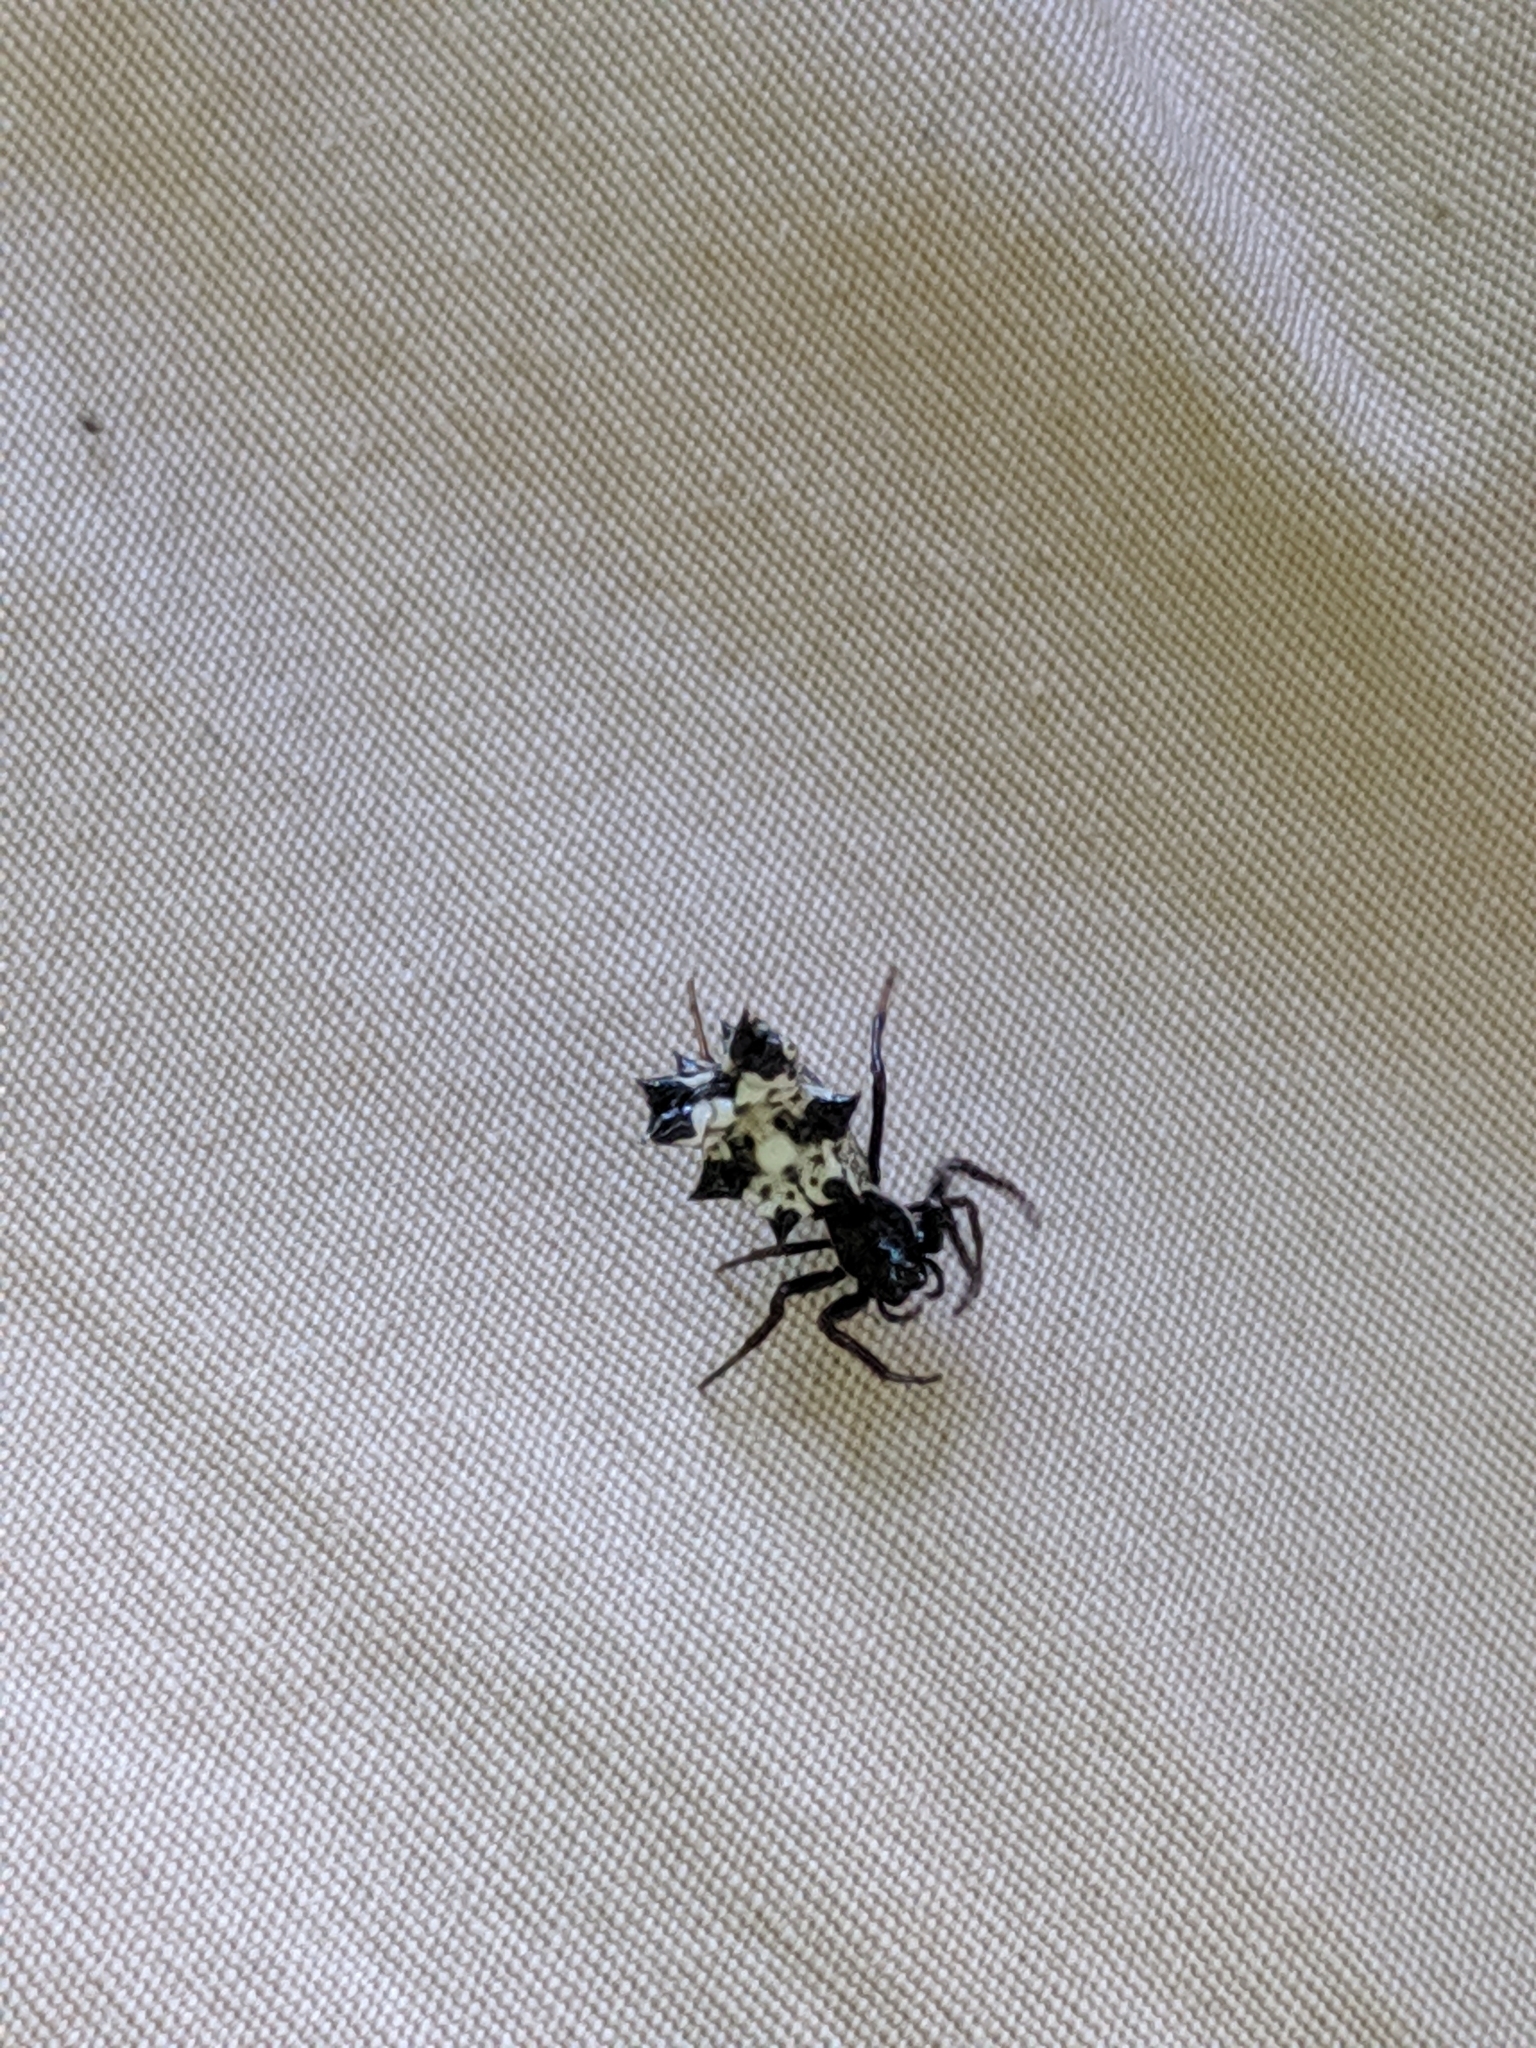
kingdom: Animalia
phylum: Arthropoda
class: Arachnida
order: Araneae
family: Araneidae
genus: Micrathena
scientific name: Micrathena gracilis
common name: Orb weavers
